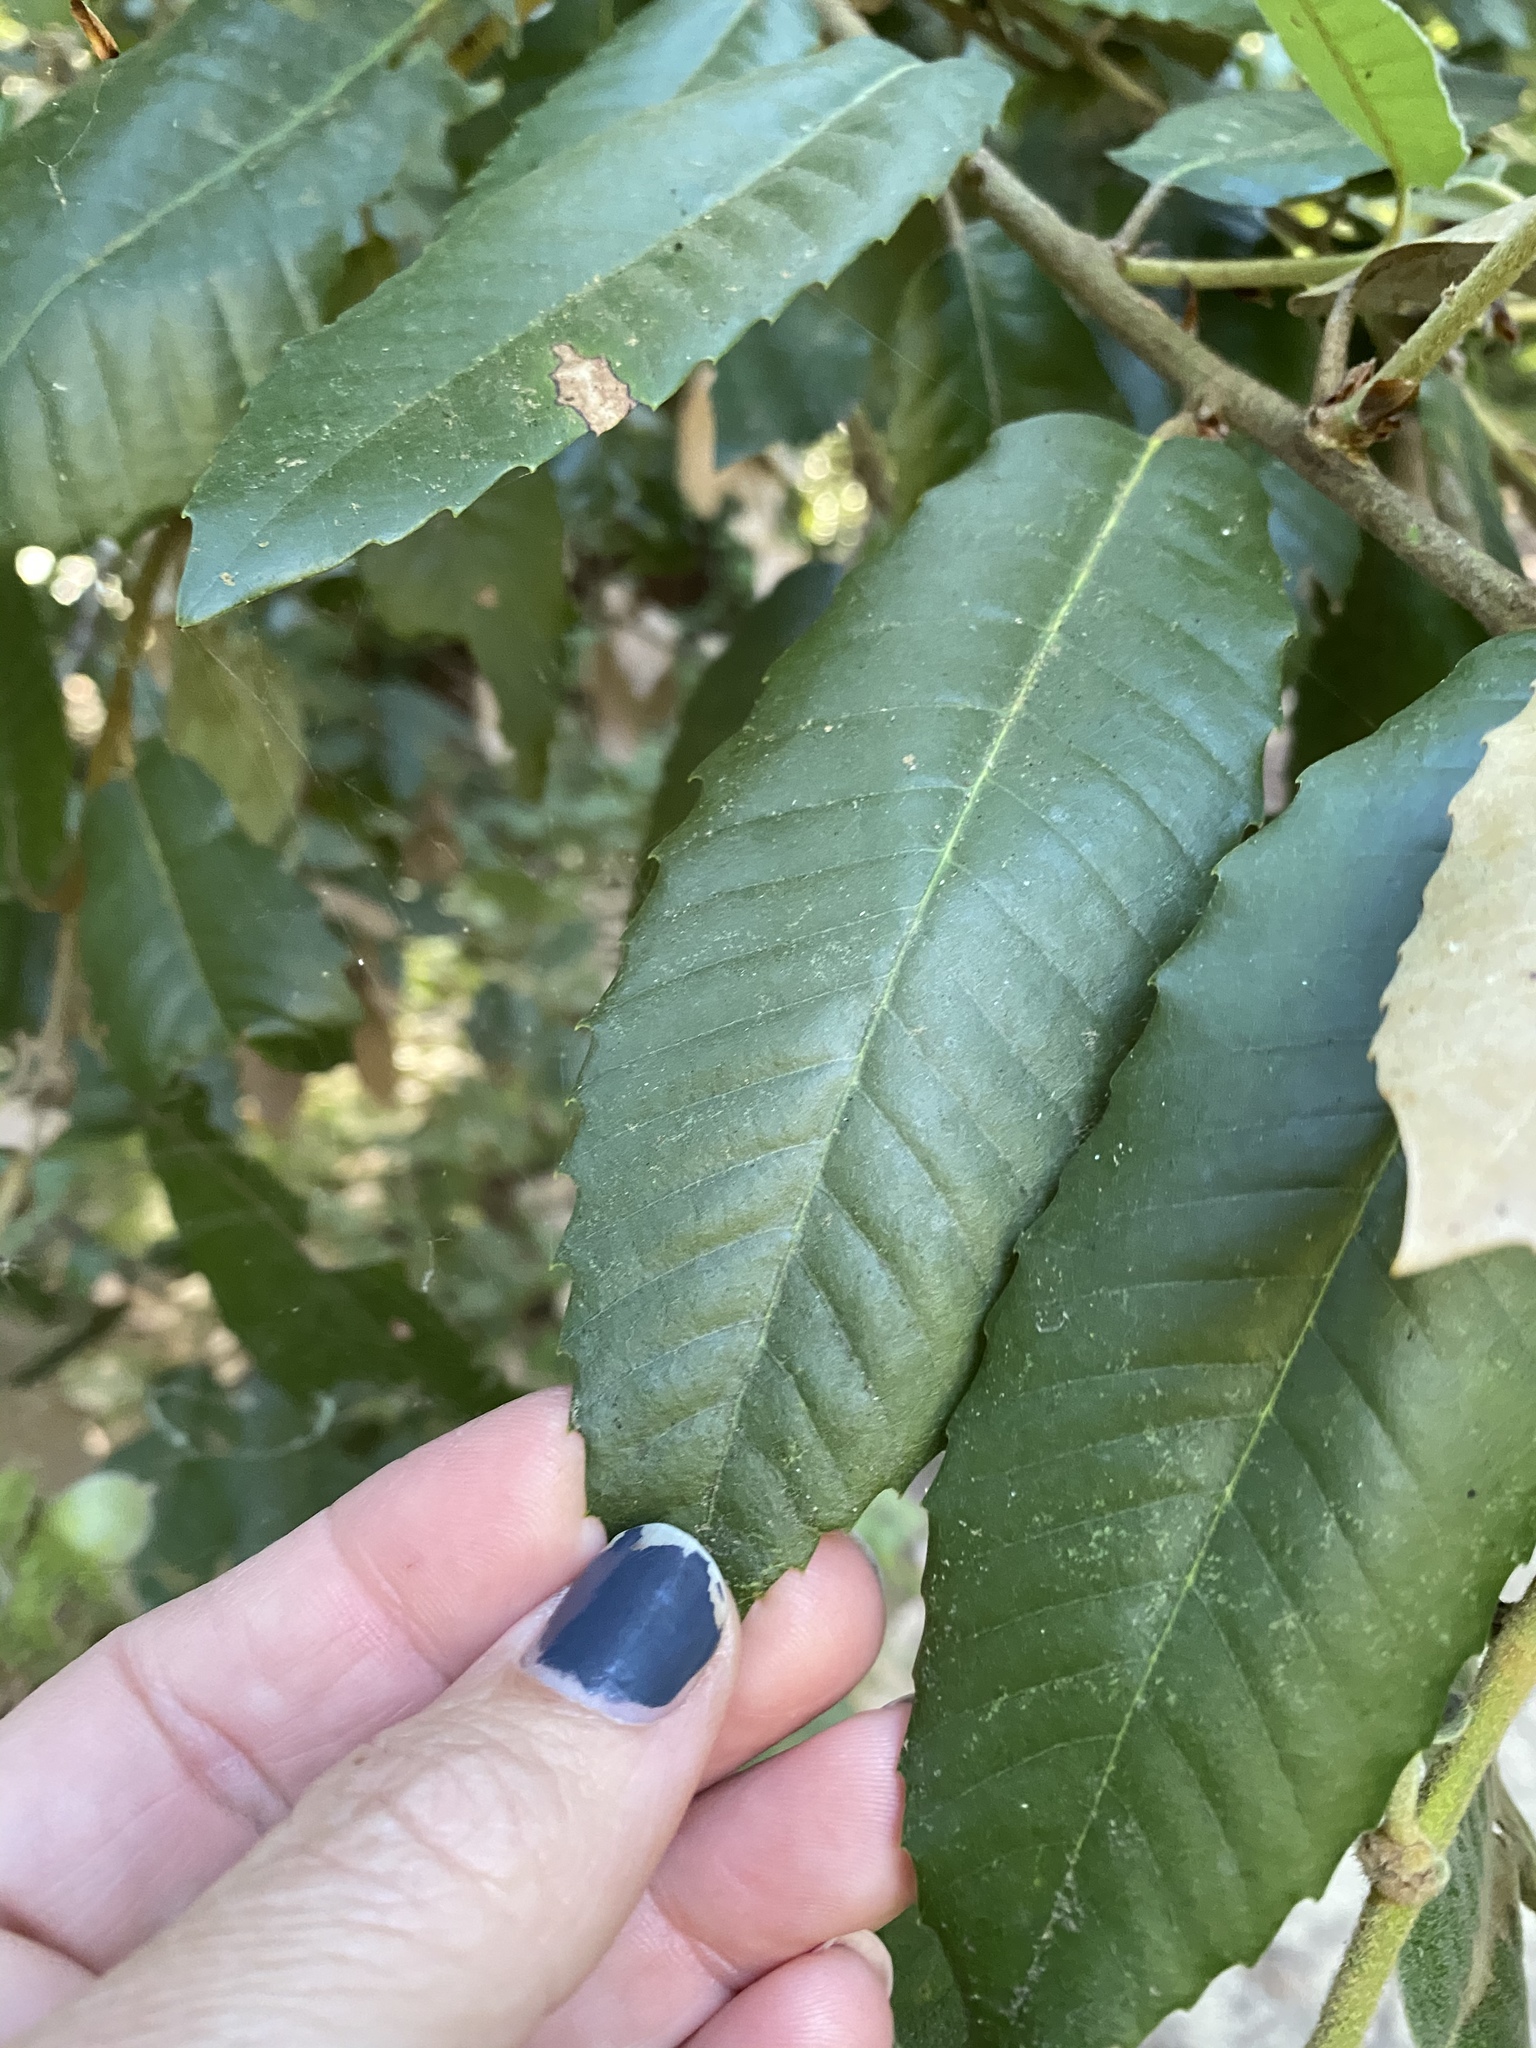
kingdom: Plantae
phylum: Tracheophyta
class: Magnoliopsida
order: Fagales
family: Fagaceae
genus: Notholithocarpus
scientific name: Notholithocarpus densiflorus
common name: Tan bark oak
